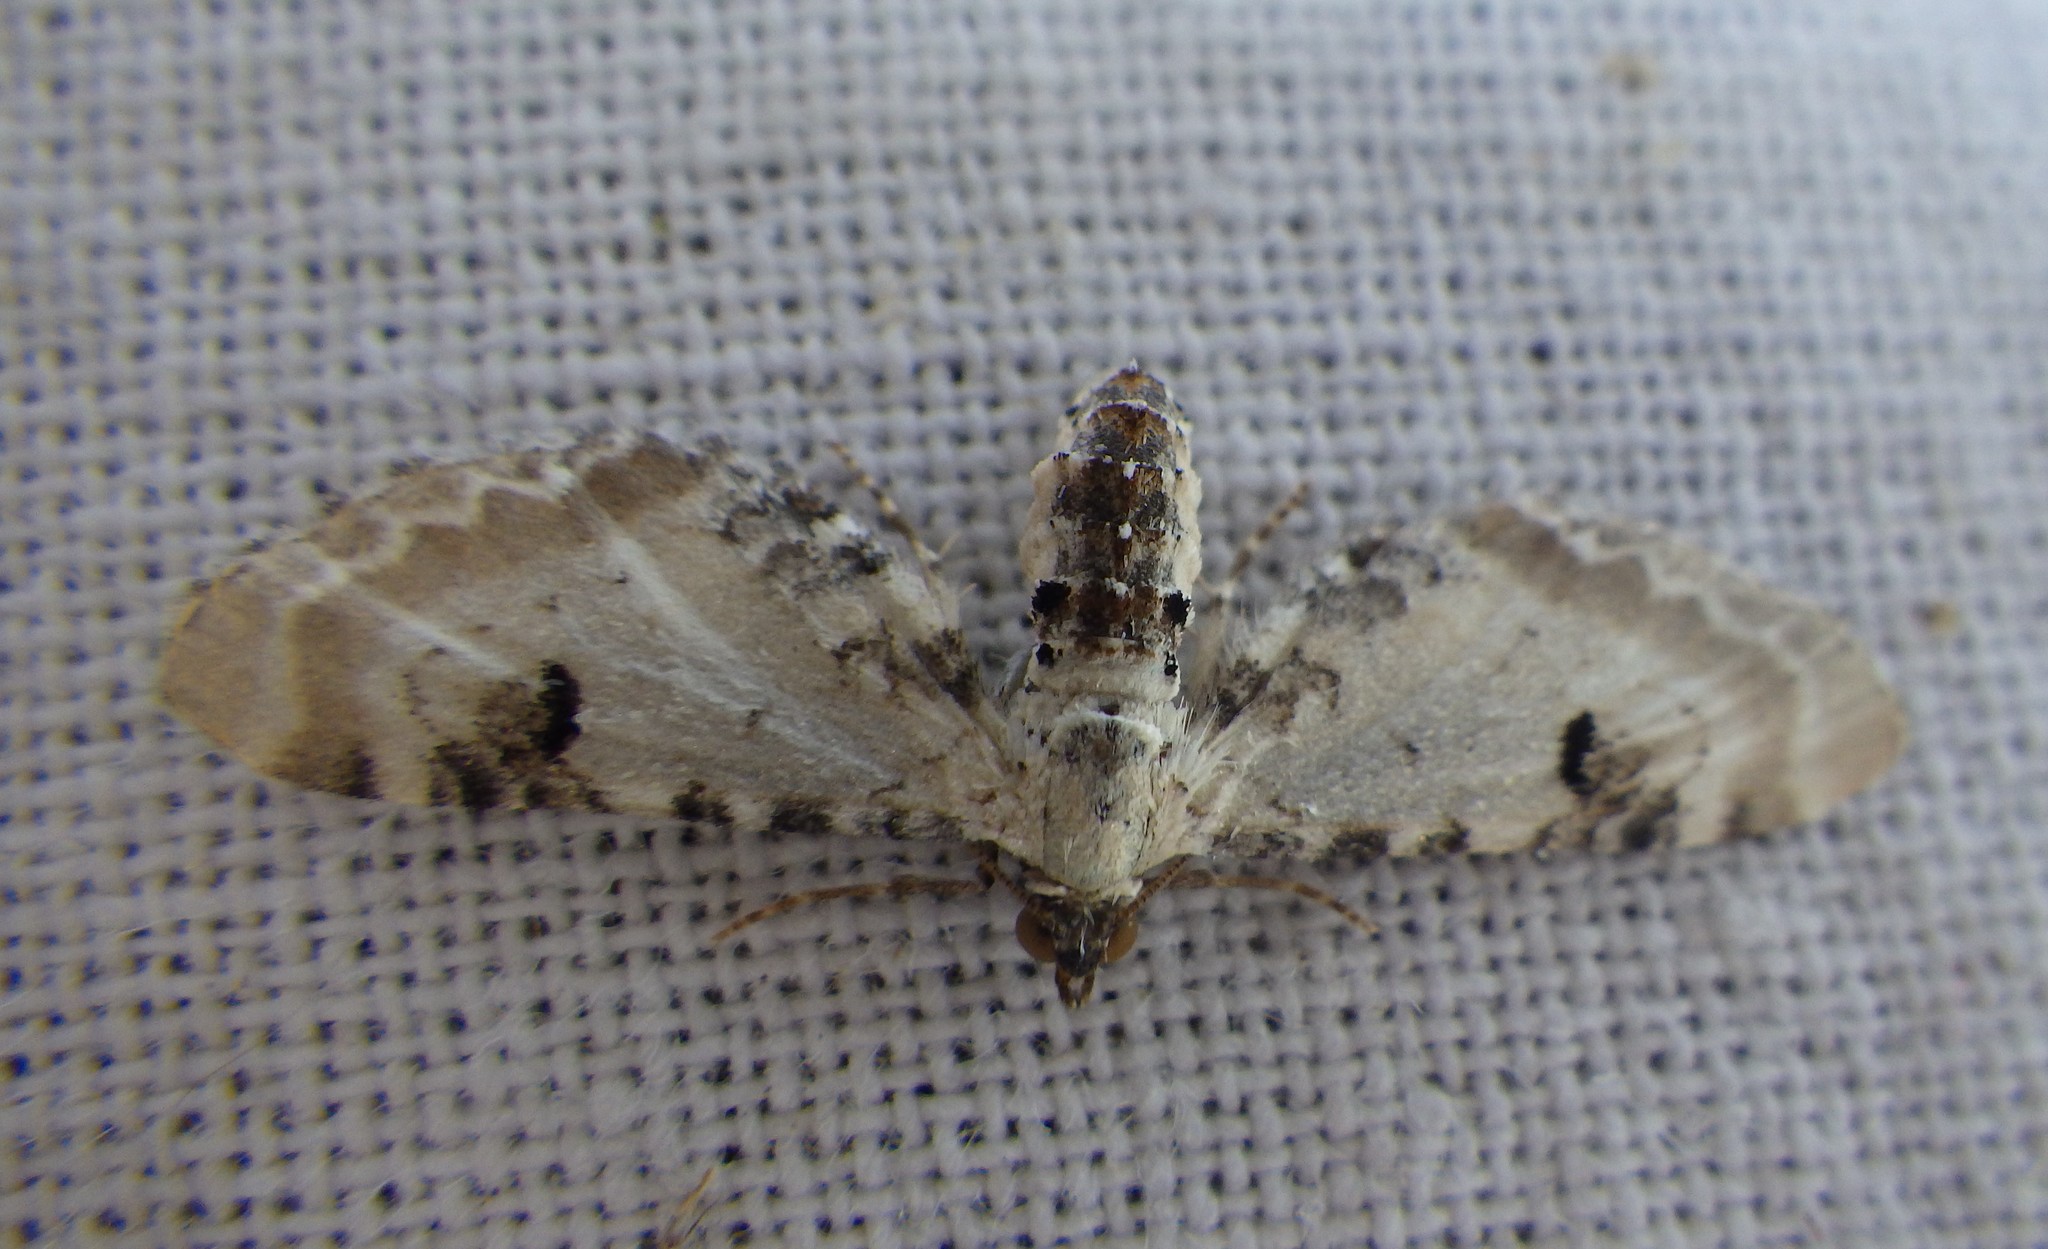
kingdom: Animalia
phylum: Arthropoda
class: Insecta
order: Lepidoptera
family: Geometridae
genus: Eupithecia
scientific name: Eupithecia centaureata
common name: Lime-speck pug
